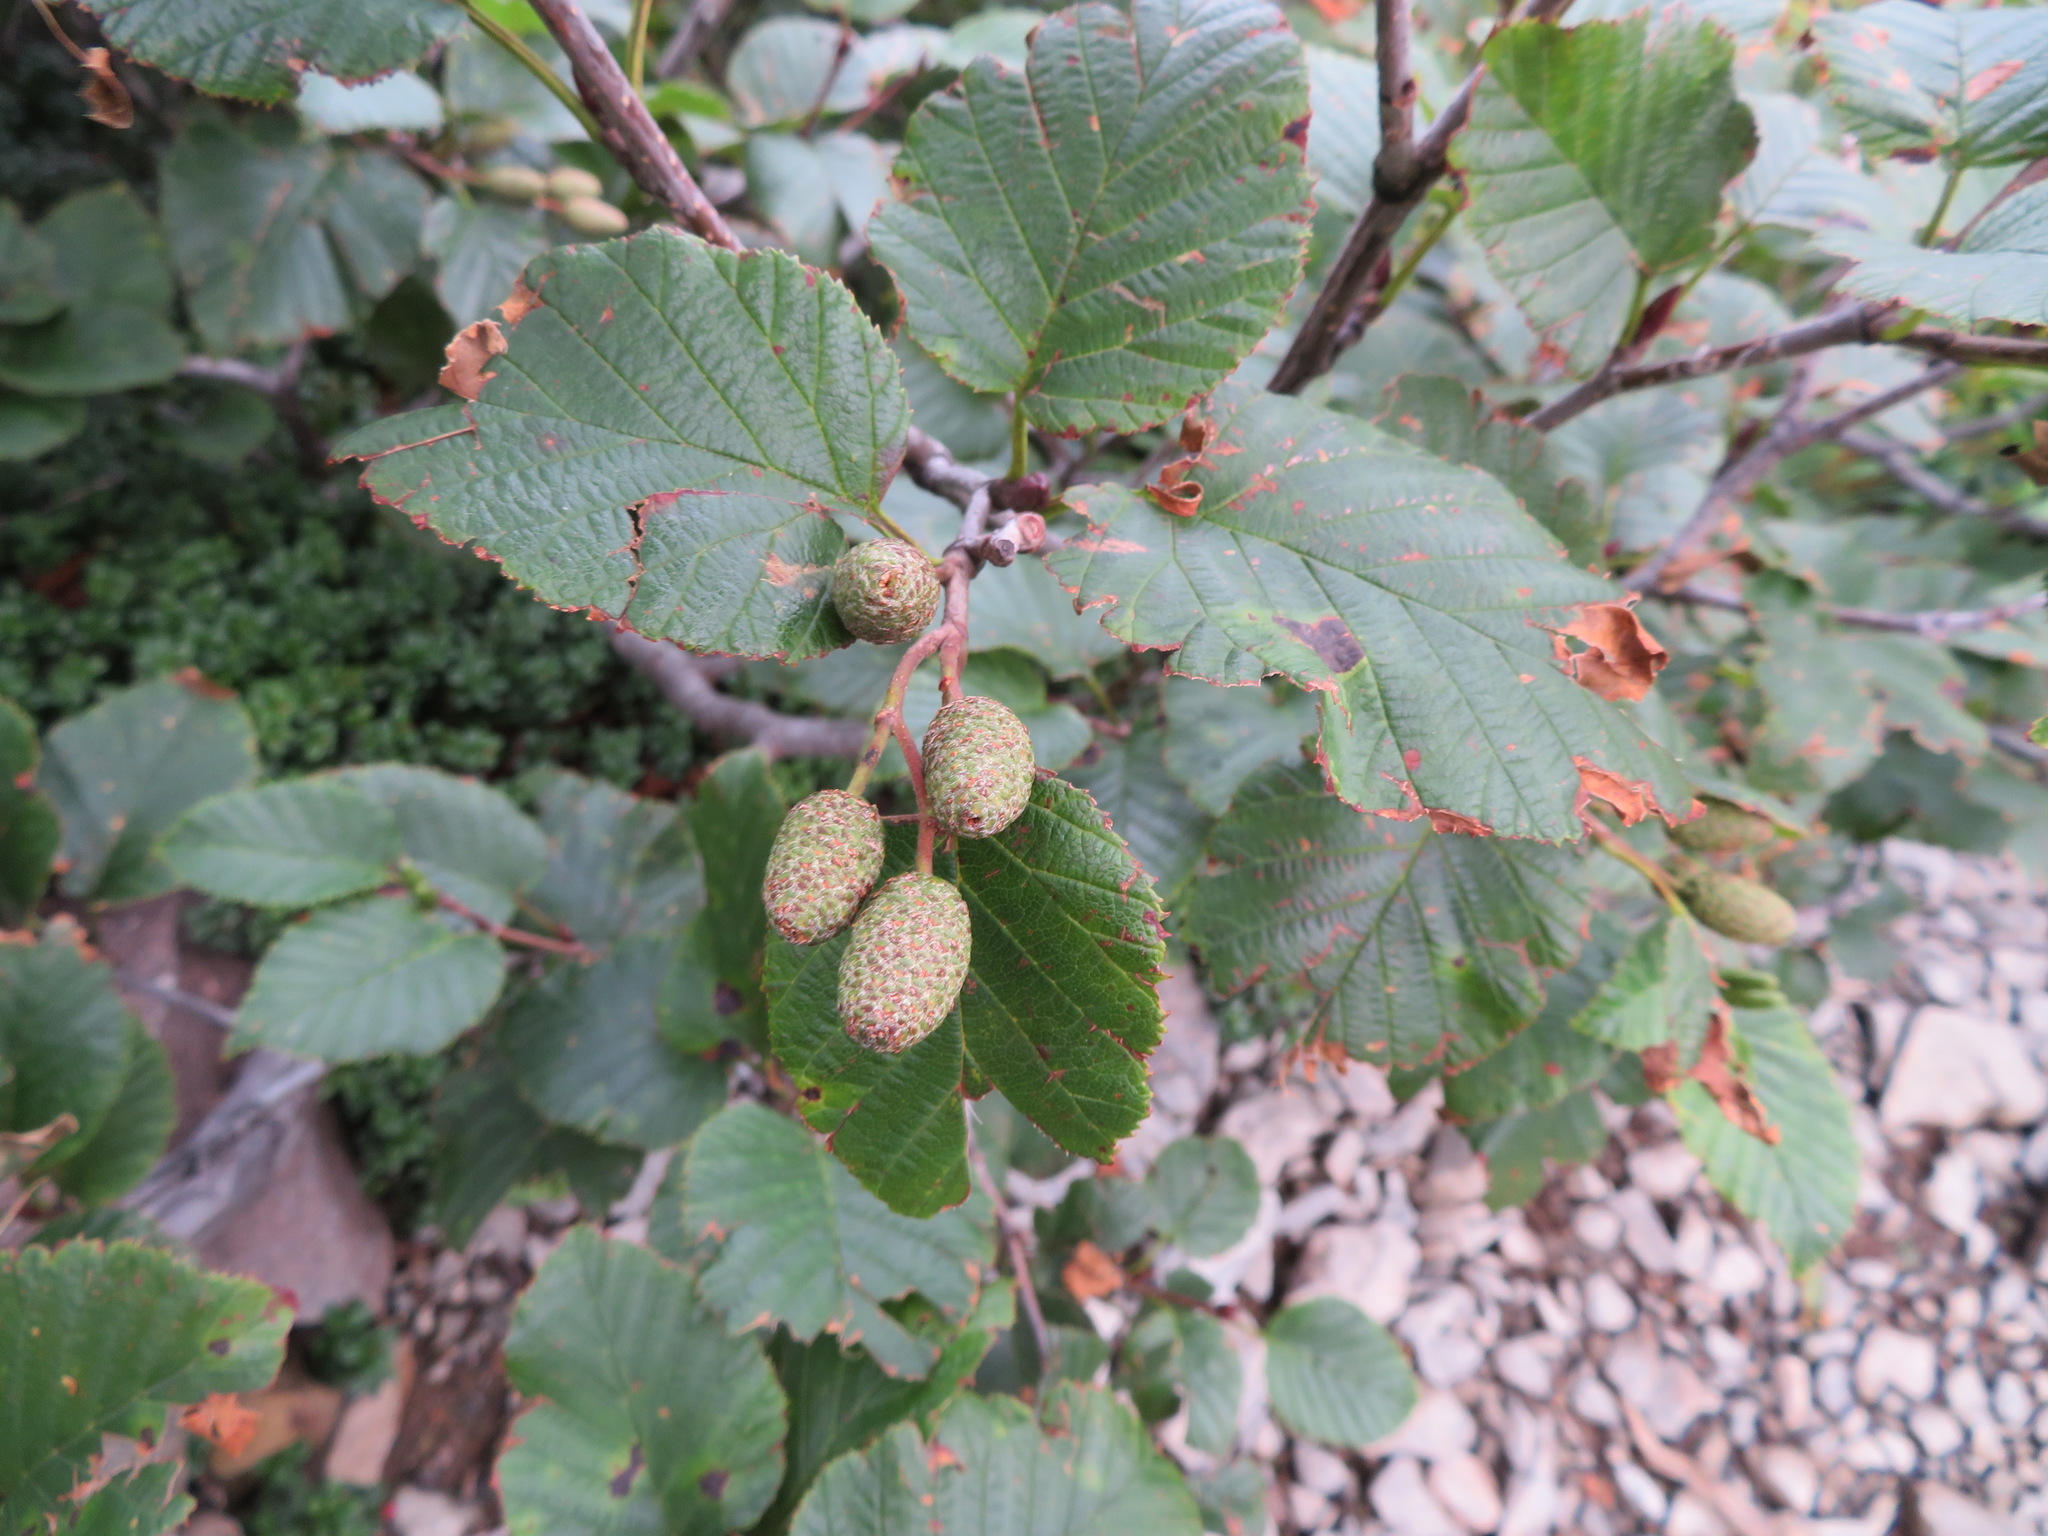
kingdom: Plantae
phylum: Tracheophyta
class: Magnoliopsida
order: Fagales
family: Betulaceae
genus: Alnus
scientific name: Alnus maximowiczii
